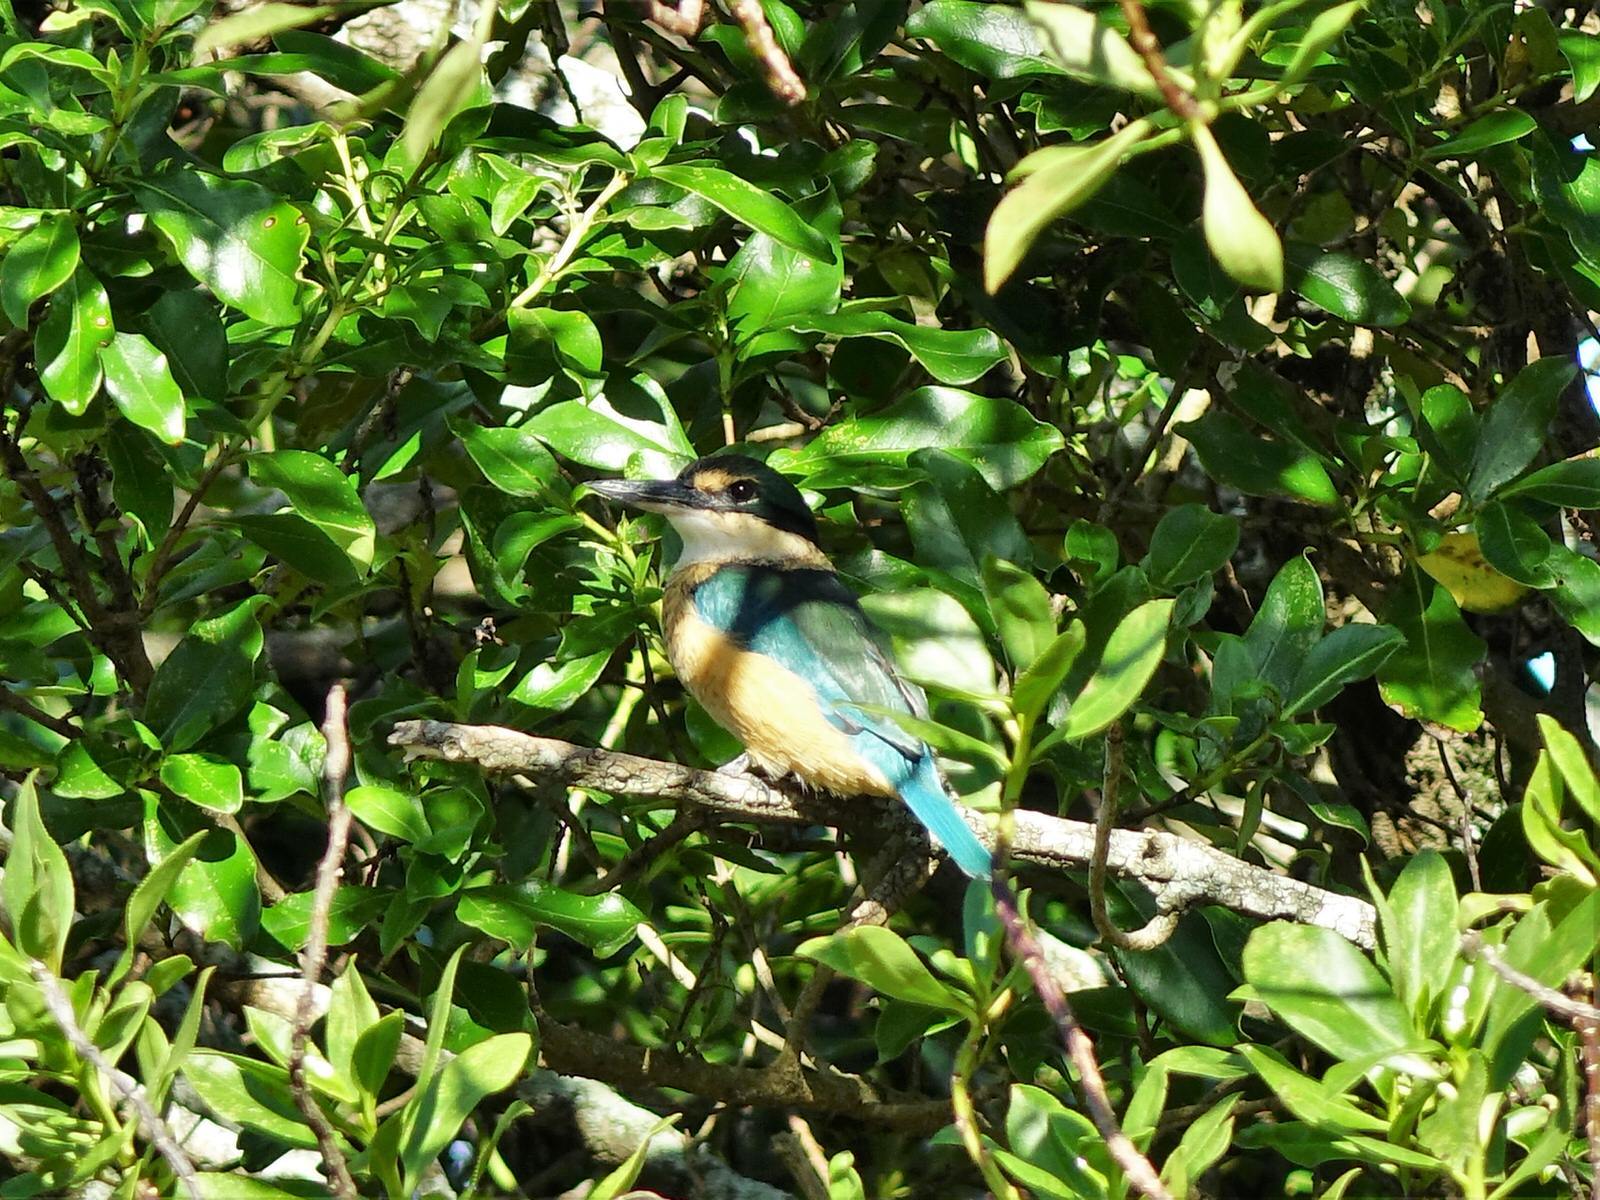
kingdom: Animalia
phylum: Chordata
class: Aves
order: Coraciiformes
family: Alcedinidae
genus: Todiramphus
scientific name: Todiramphus sanctus
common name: Sacred kingfisher
